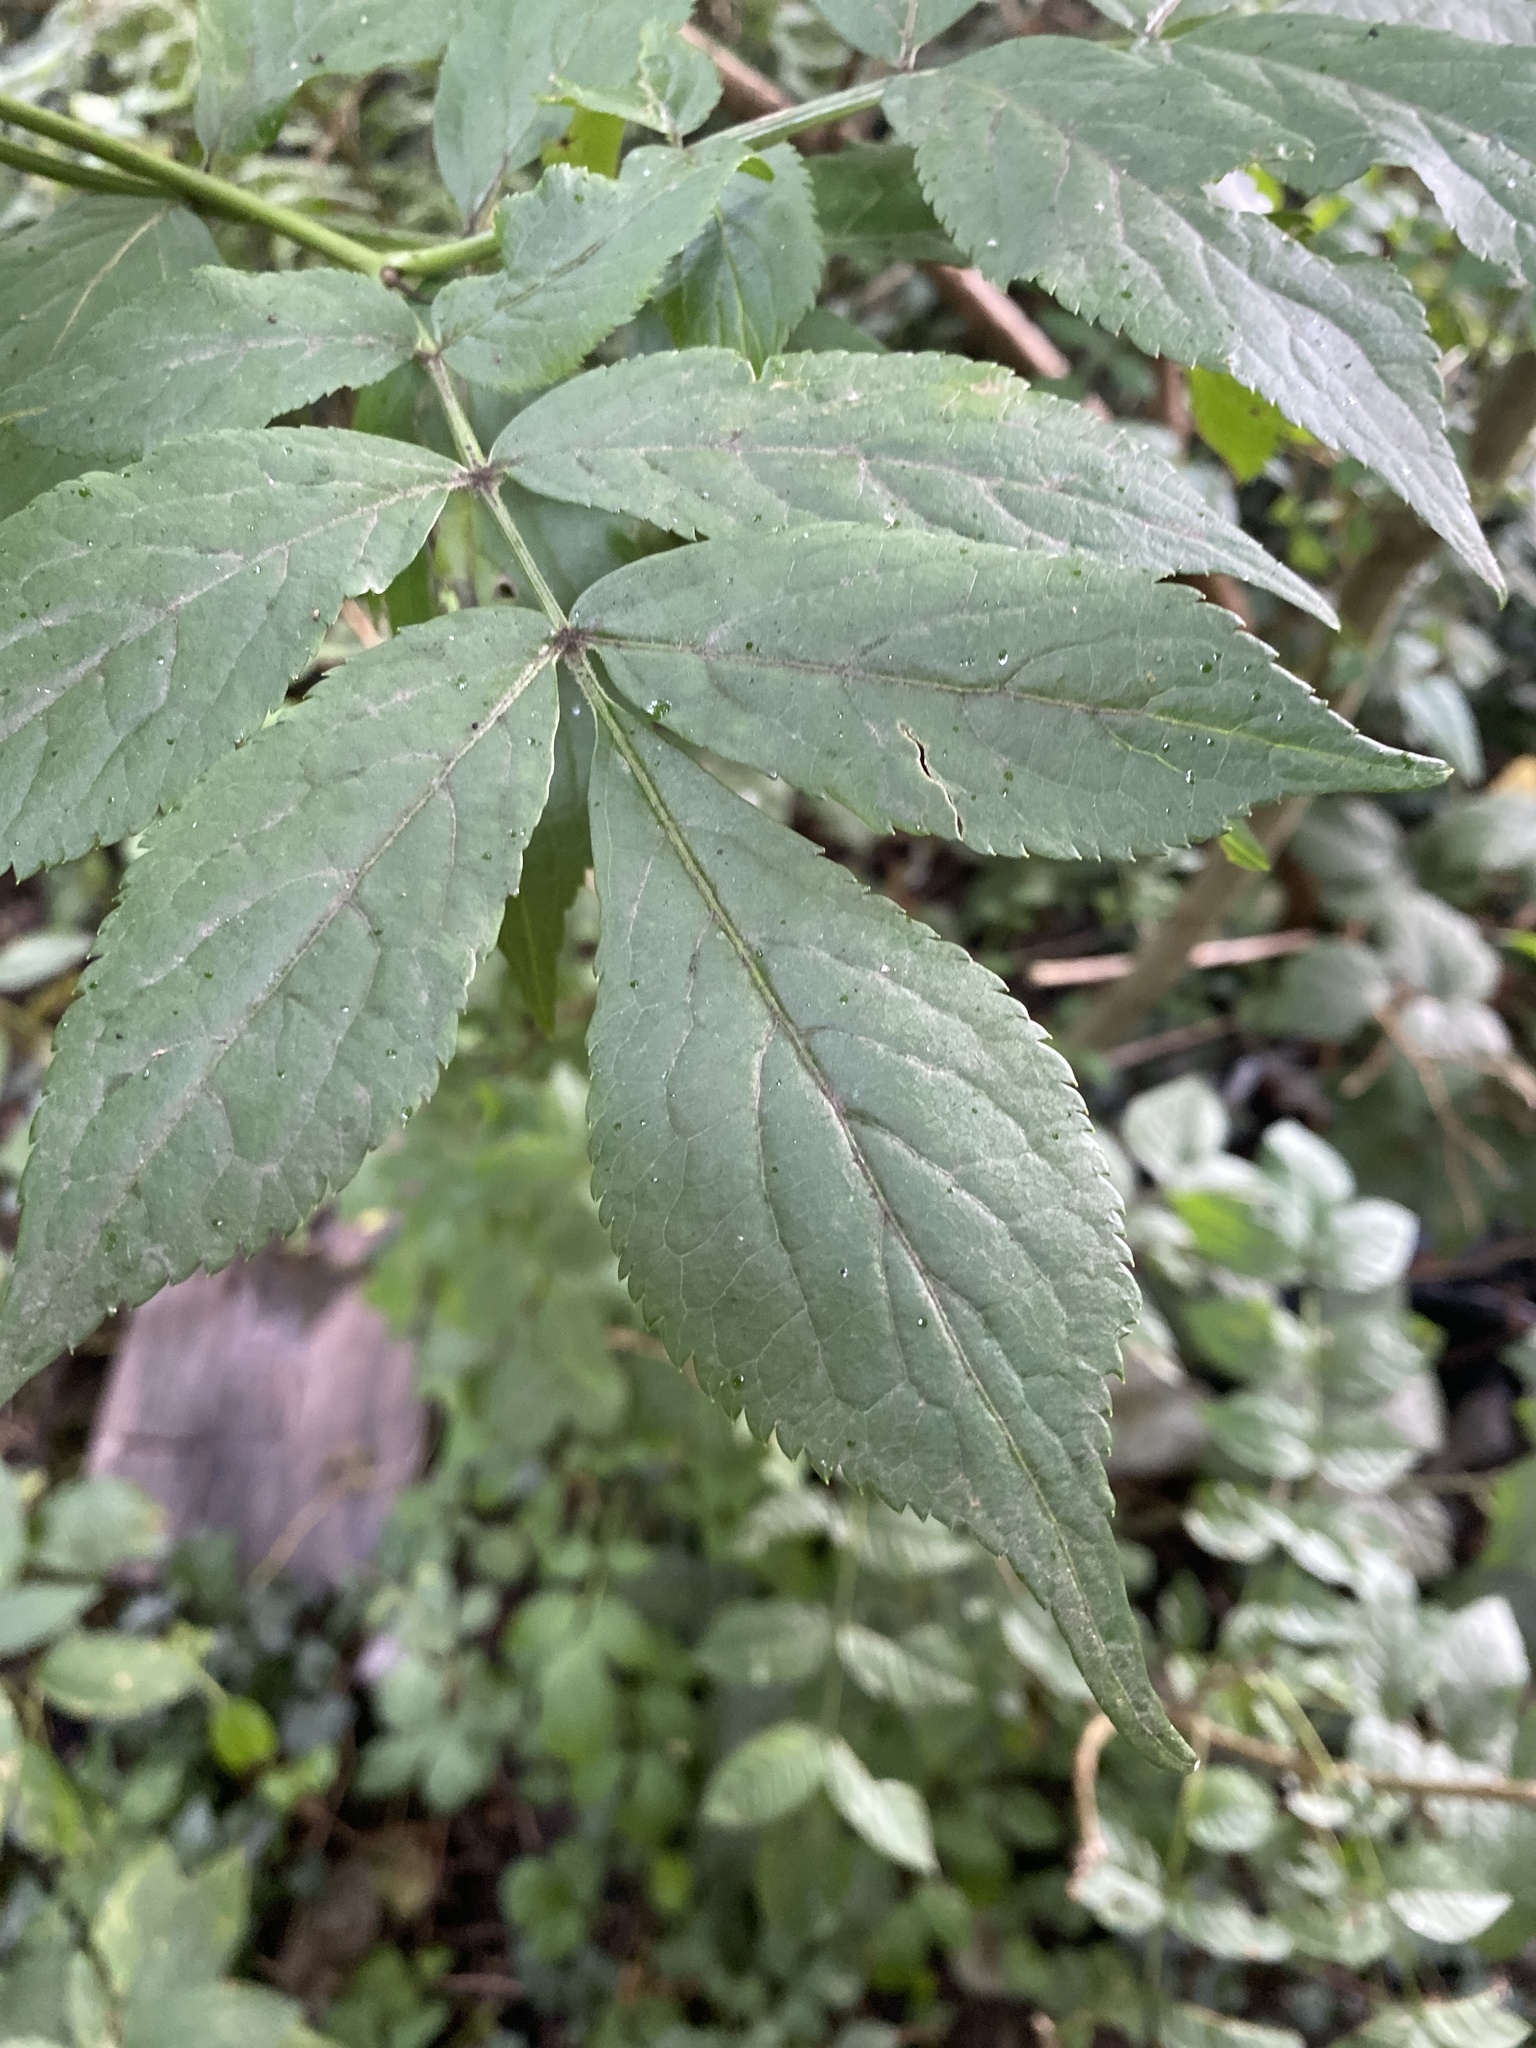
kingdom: Plantae
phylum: Tracheophyta
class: Magnoliopsida
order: Dipsacales
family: Viburnaceae
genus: Sambucus
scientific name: Sambucus nigra
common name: Elder
